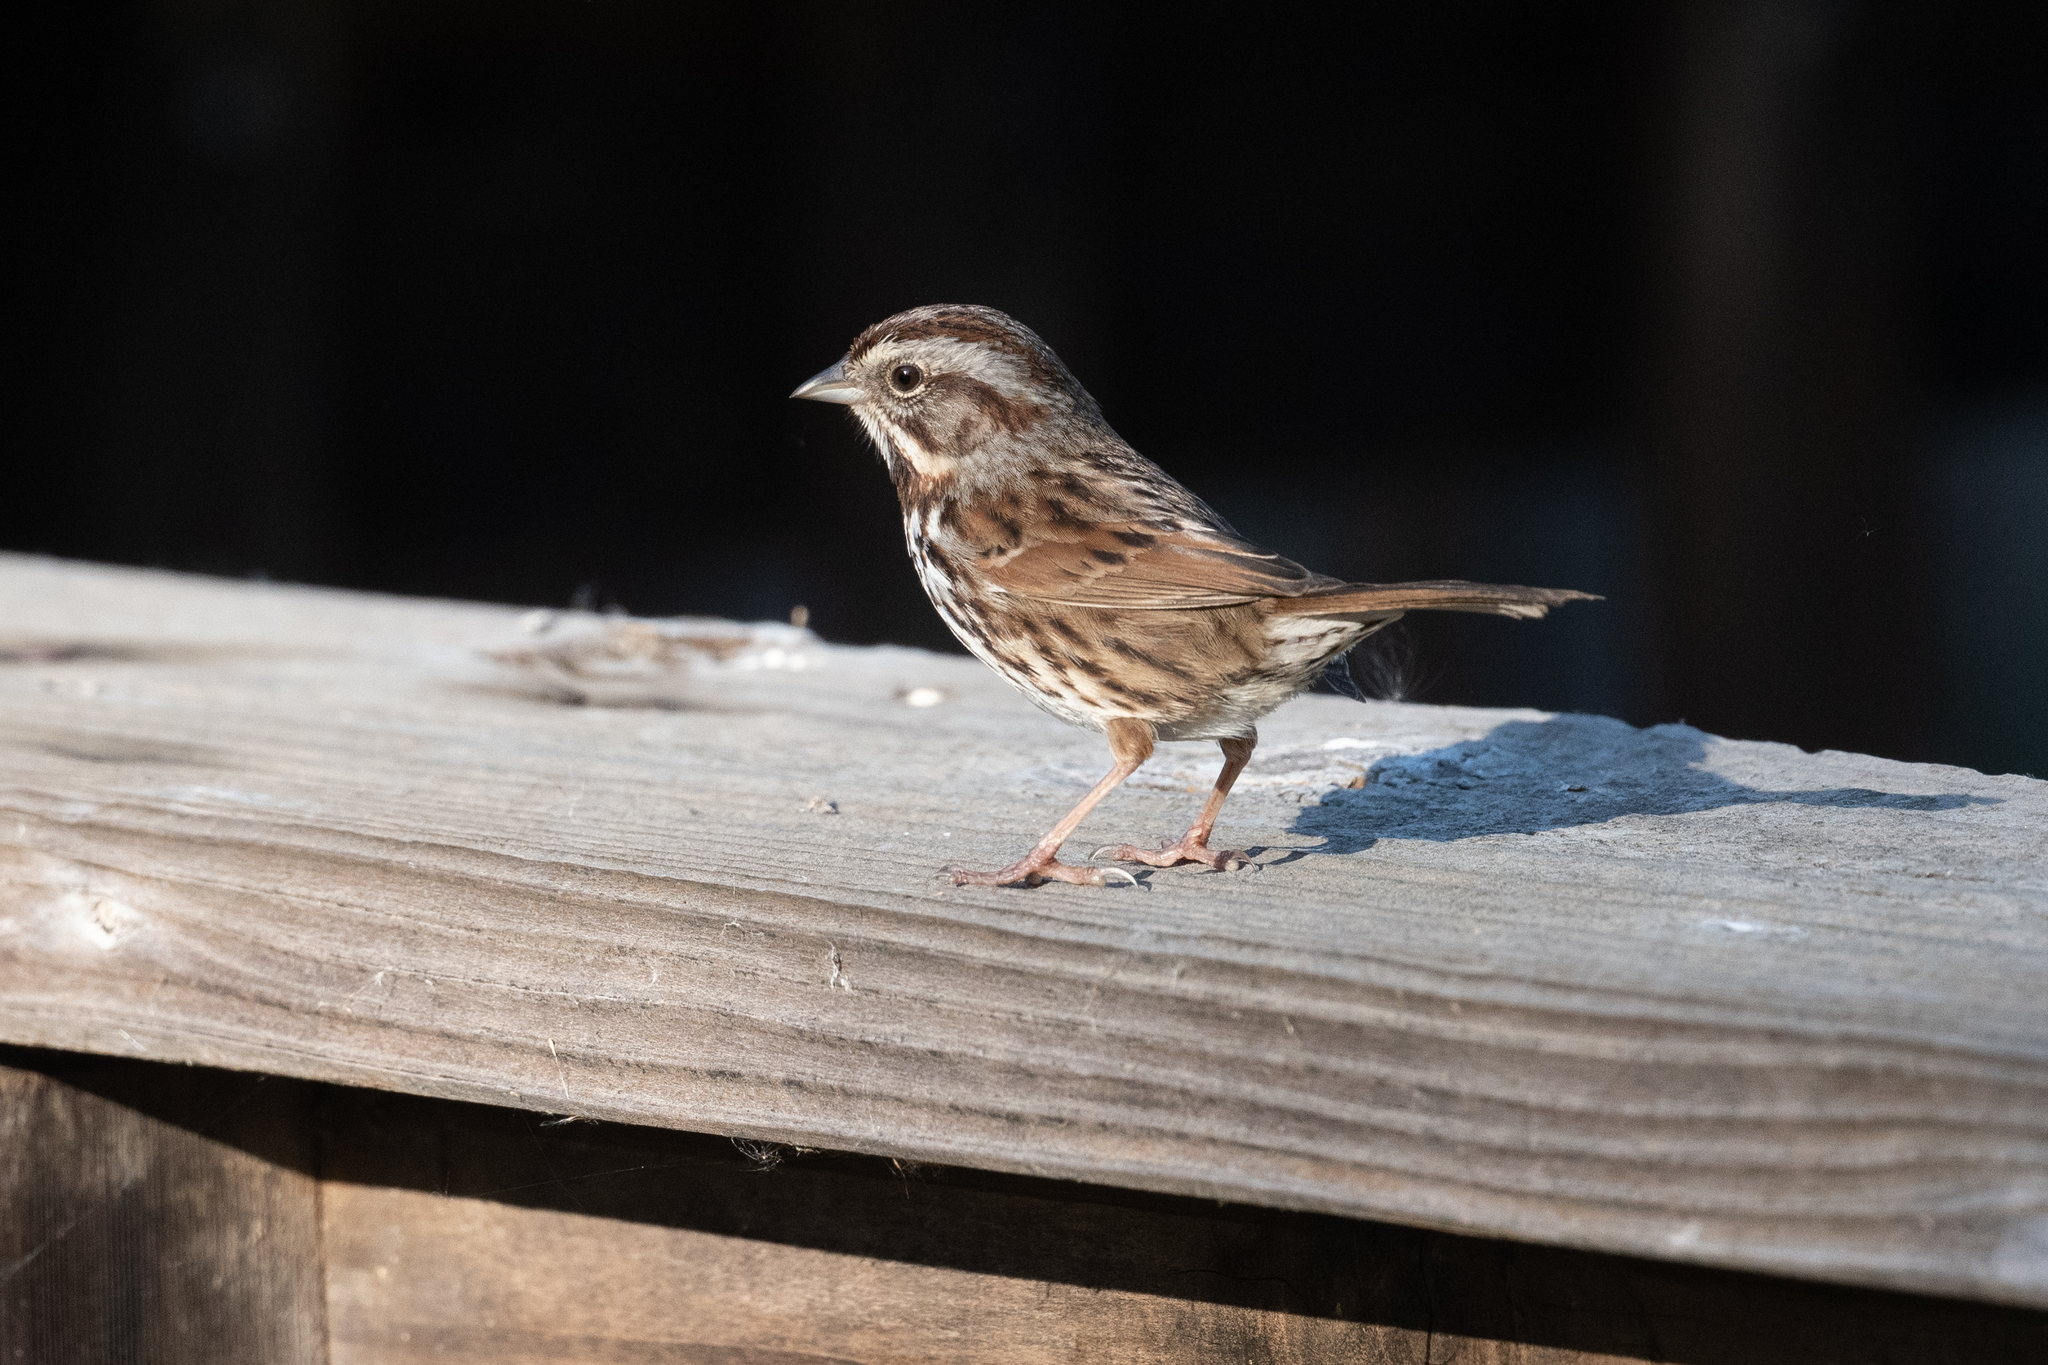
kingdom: Animalia
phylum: Chordata
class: Aves
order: Passeriformes
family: Passerellidae
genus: Melospiza
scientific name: Melospiza melodia
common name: Song sparrow
